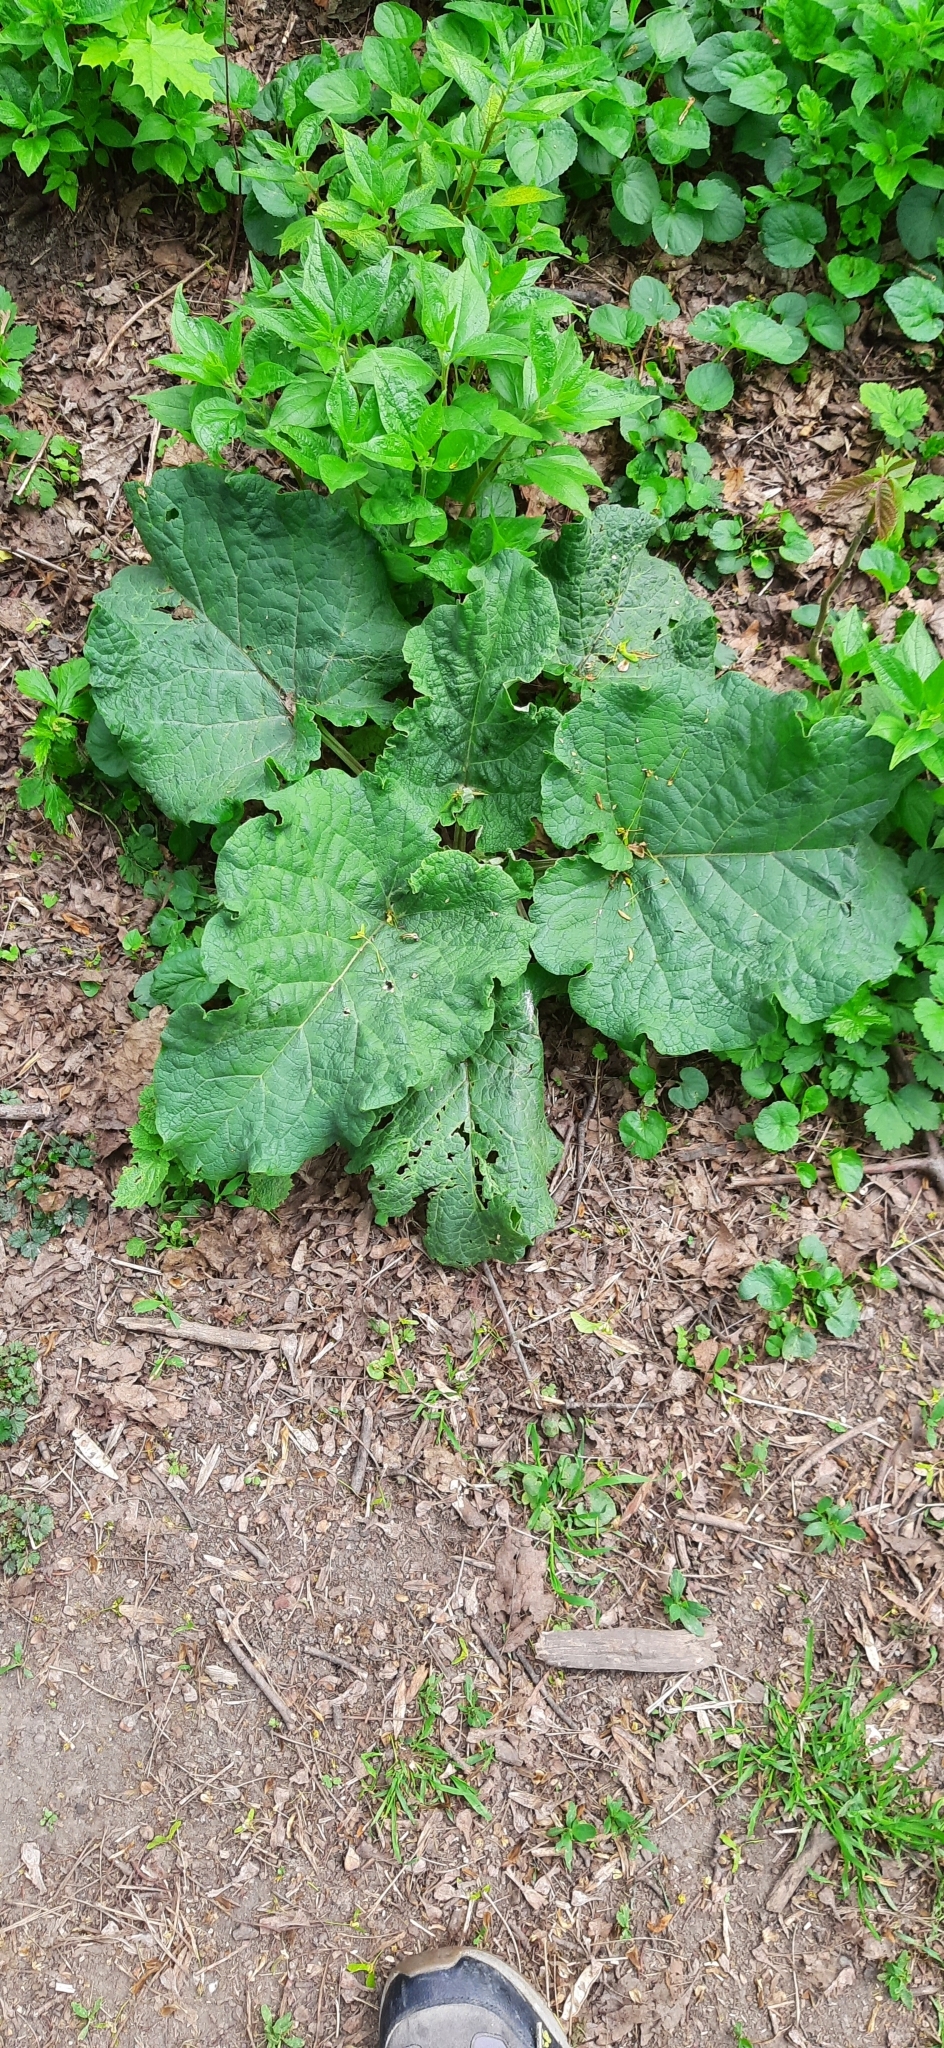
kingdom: Plantae
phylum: Tracheophyta
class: Magnoliopsida
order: Asterales
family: Asteraceae
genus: Arctium
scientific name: Arctium
